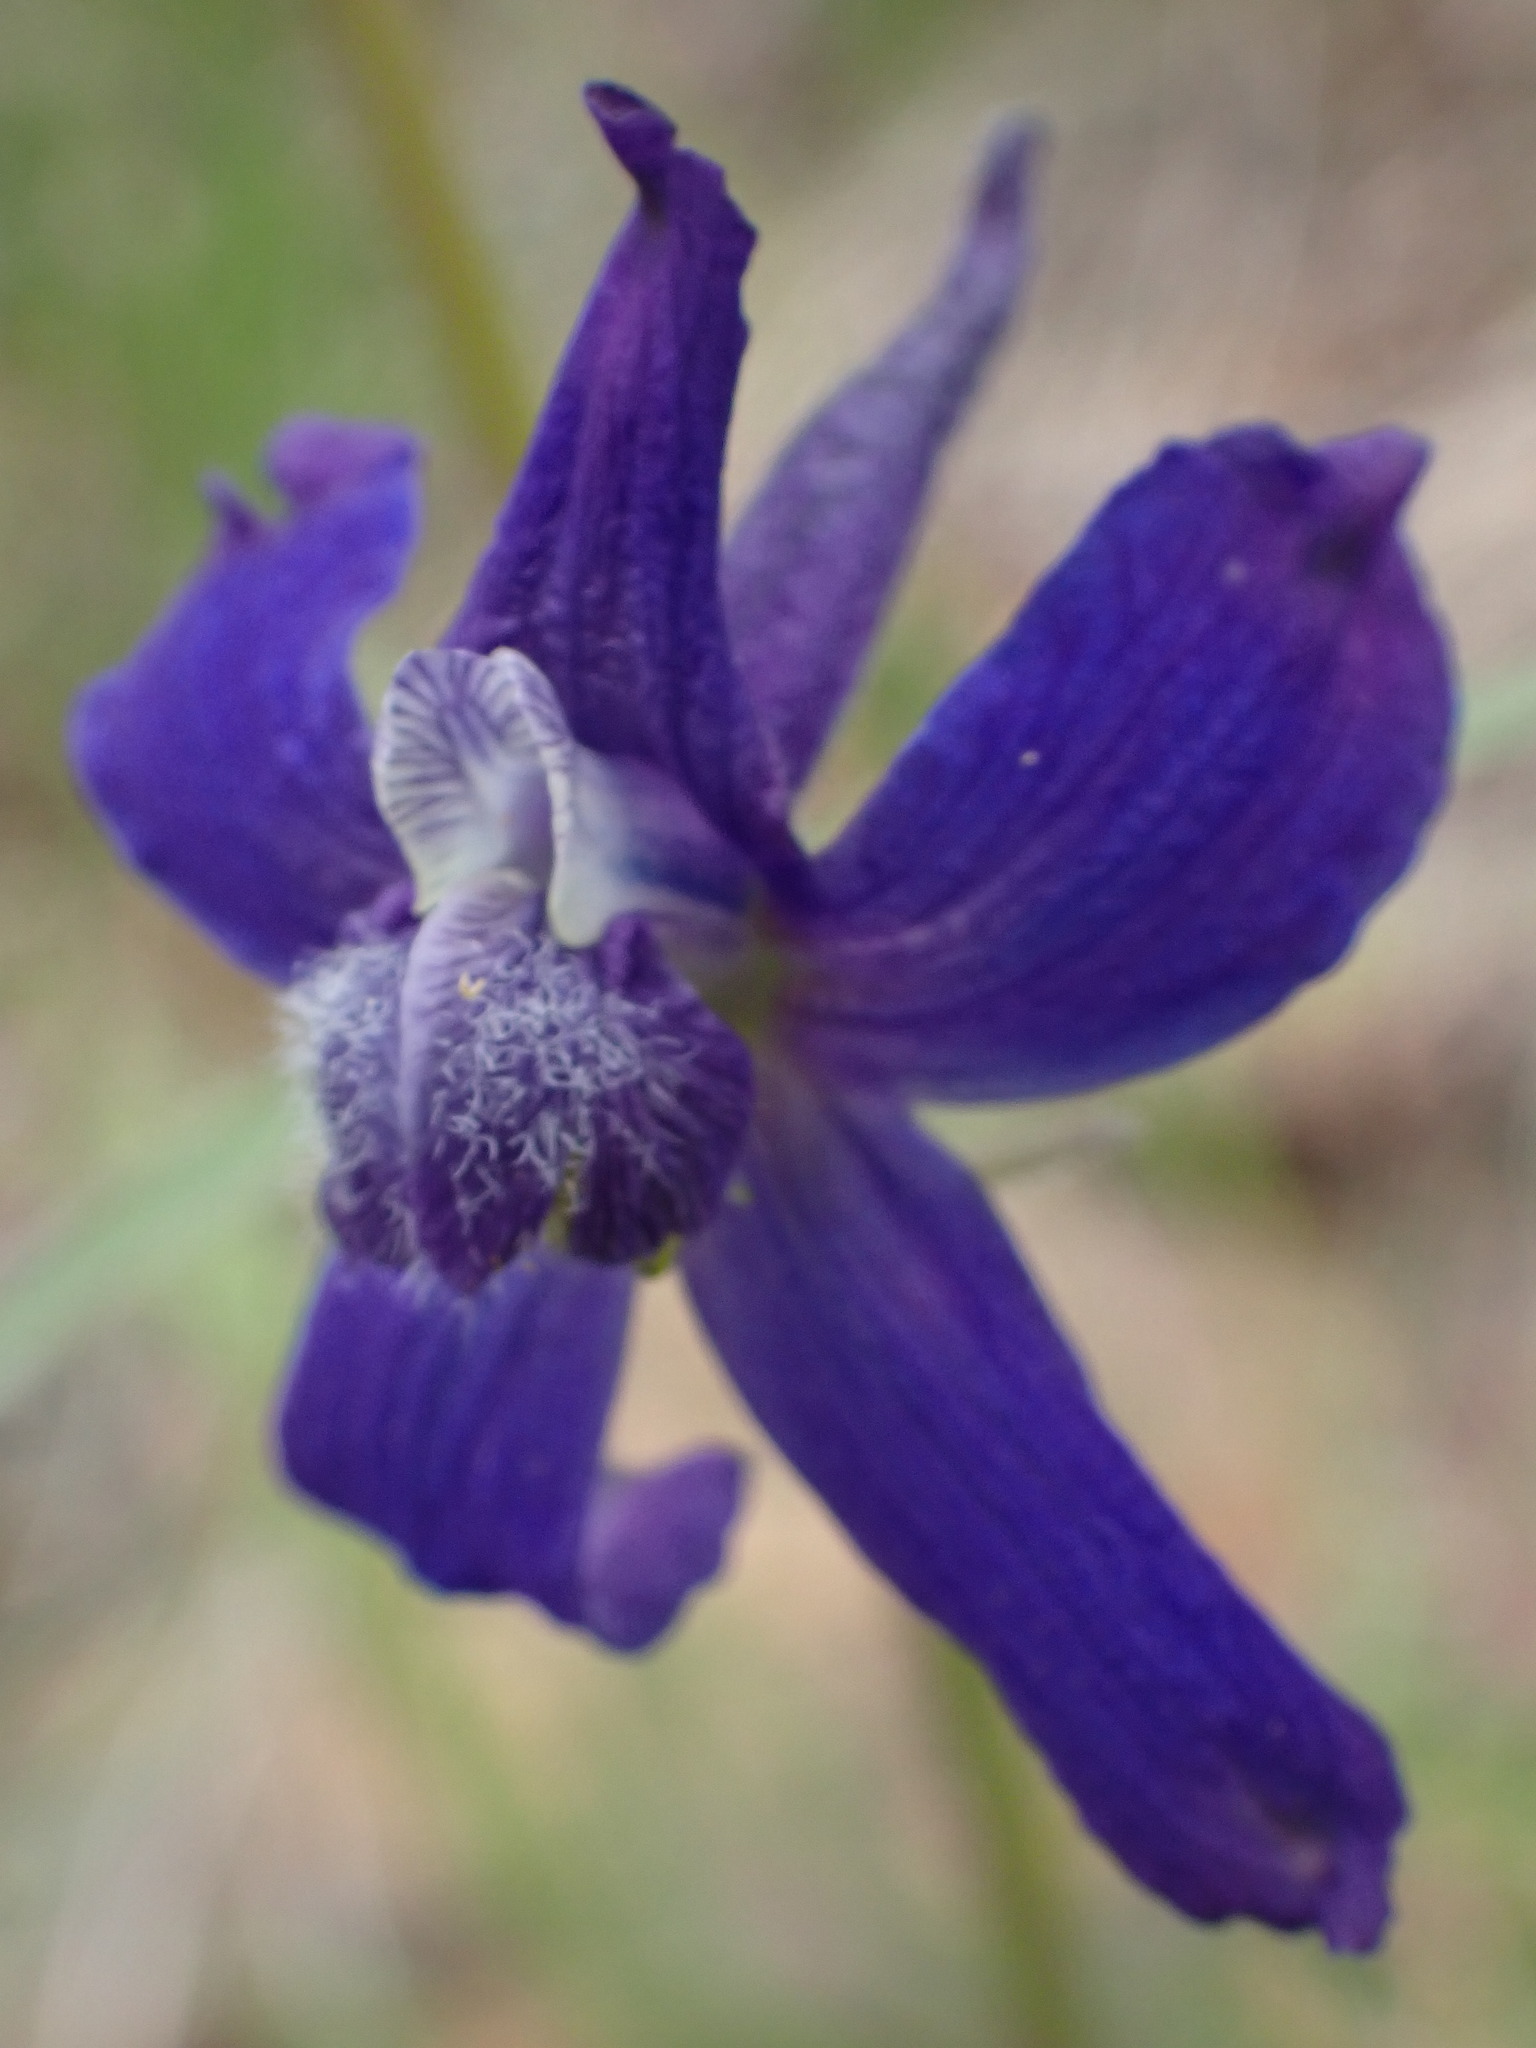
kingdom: Plantae
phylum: Tracheophyta
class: Magnoliopsida
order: Ranunculales
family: Ranunculaceae
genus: Delphinium
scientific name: Delphinium nuttallianum
